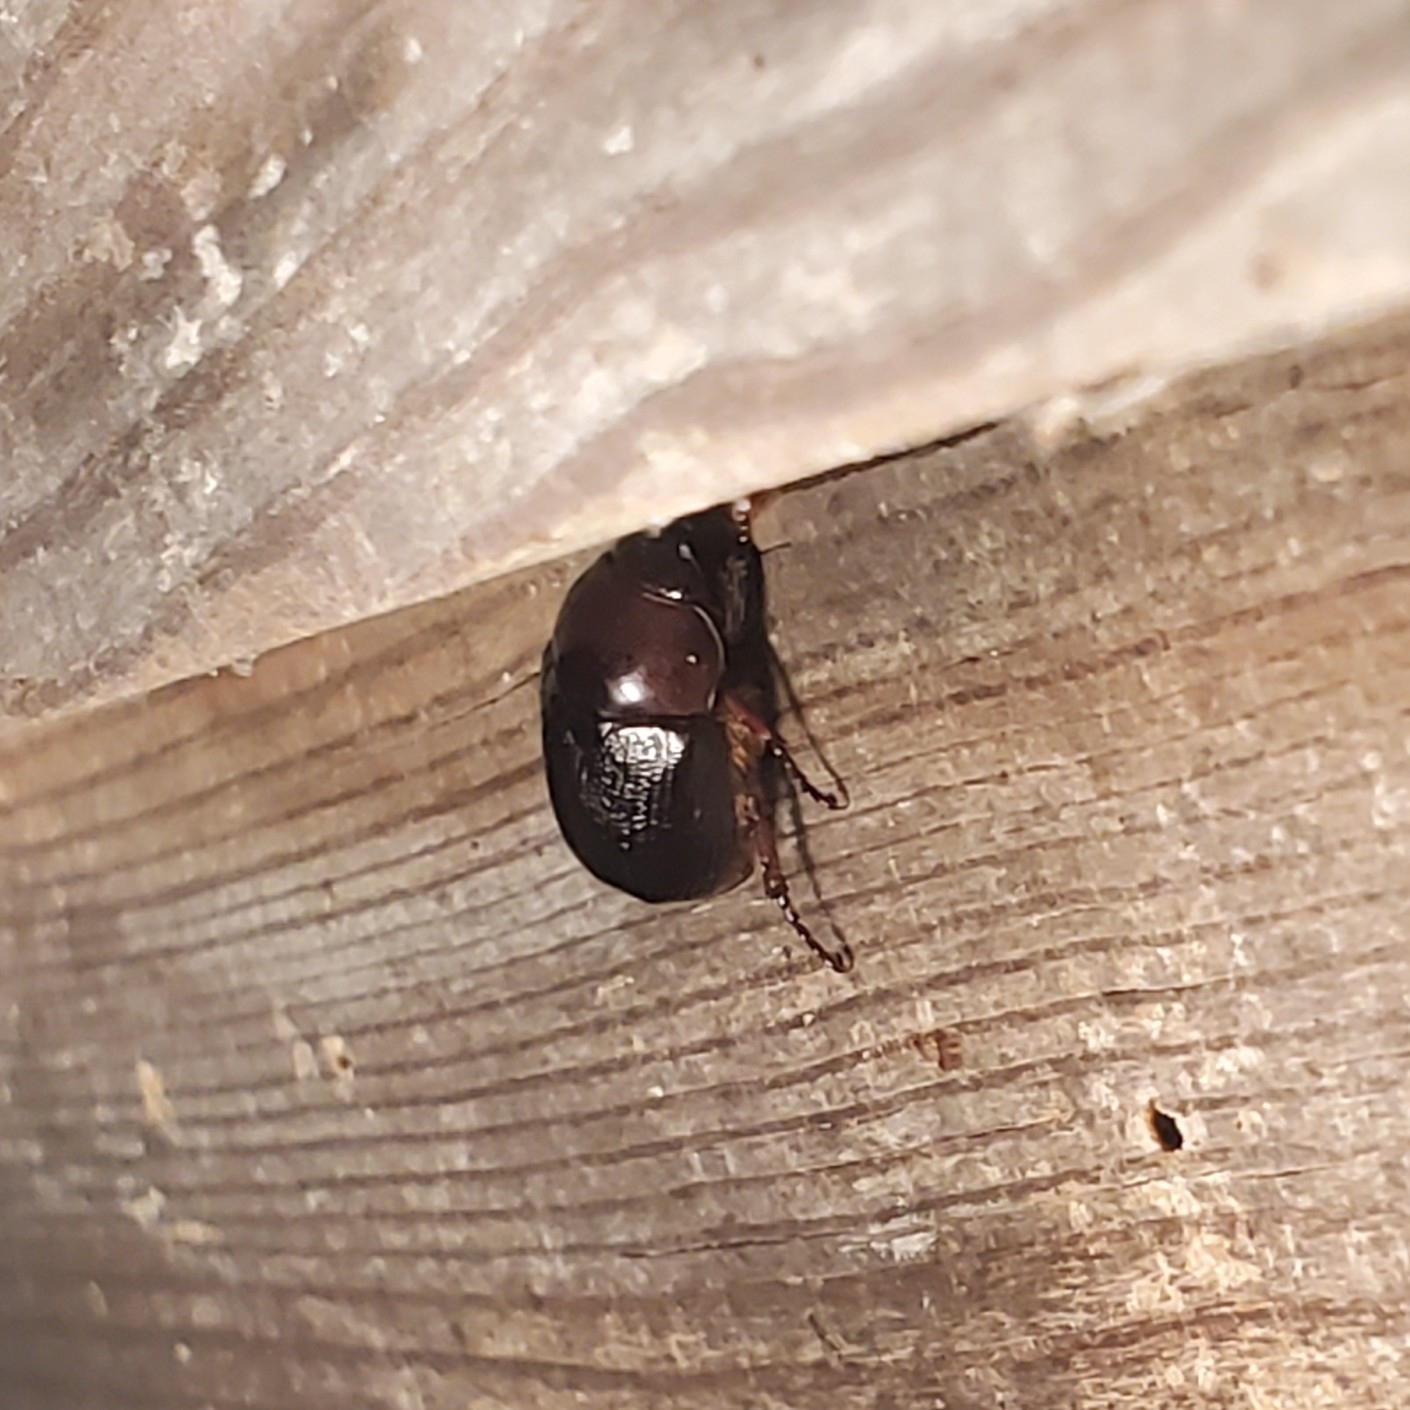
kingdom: Animalia
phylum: Arthropoda
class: Insecta
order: Coleoptera
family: Scarabaeidae
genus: Parastasia
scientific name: Parastasia brevipes
